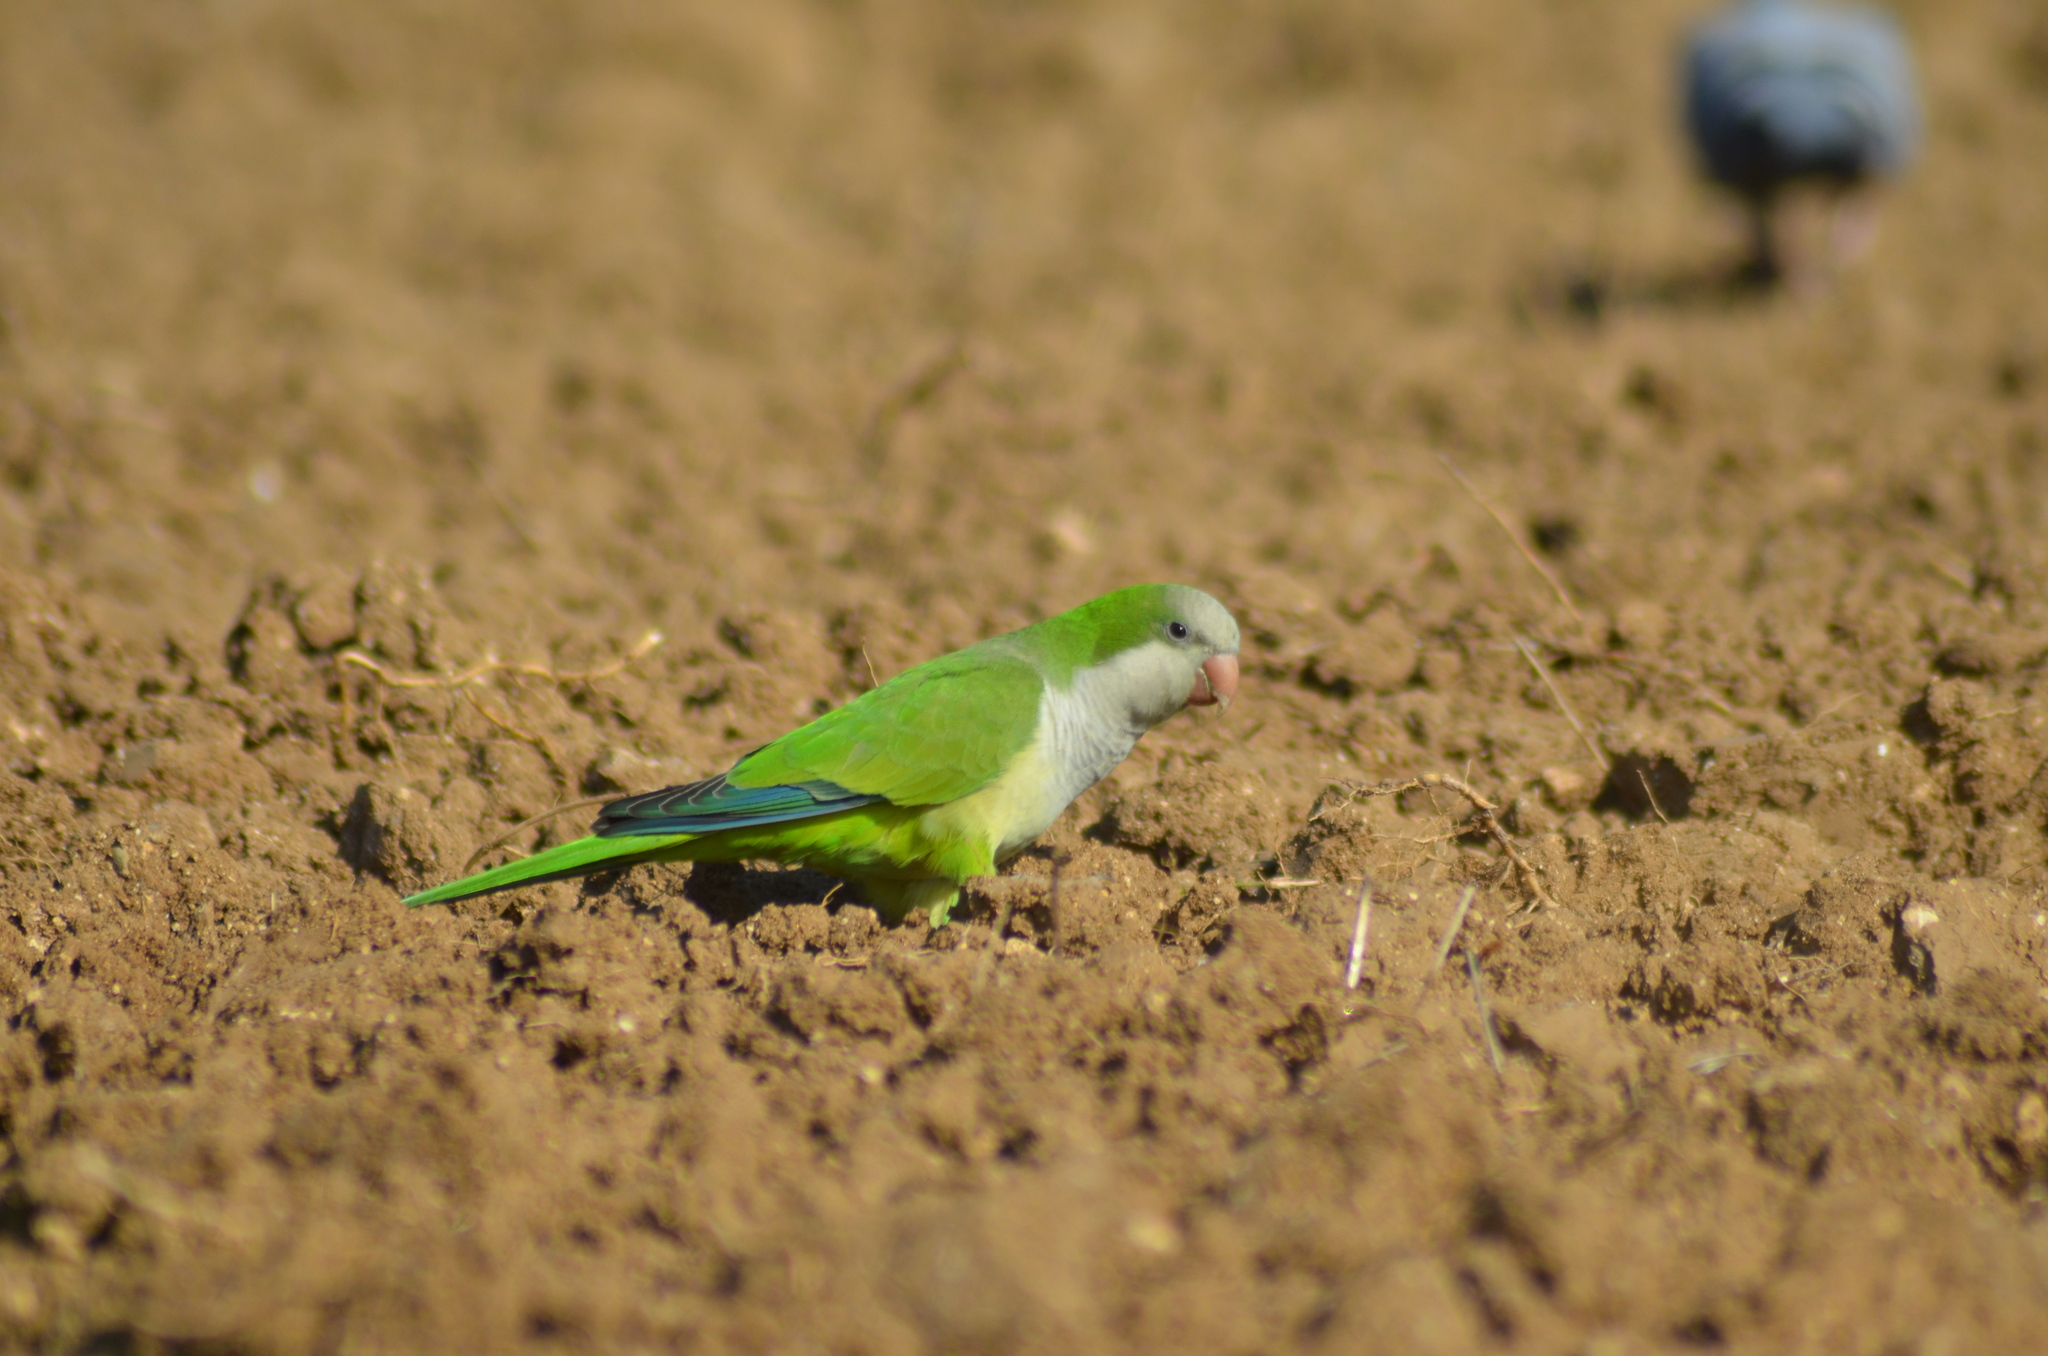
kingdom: Animalia
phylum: Chordata
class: Aves
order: Psittaciformes
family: Psittacidae
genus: Myiopsitta
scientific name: Myiopsitta monachus
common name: Monk parakeet
